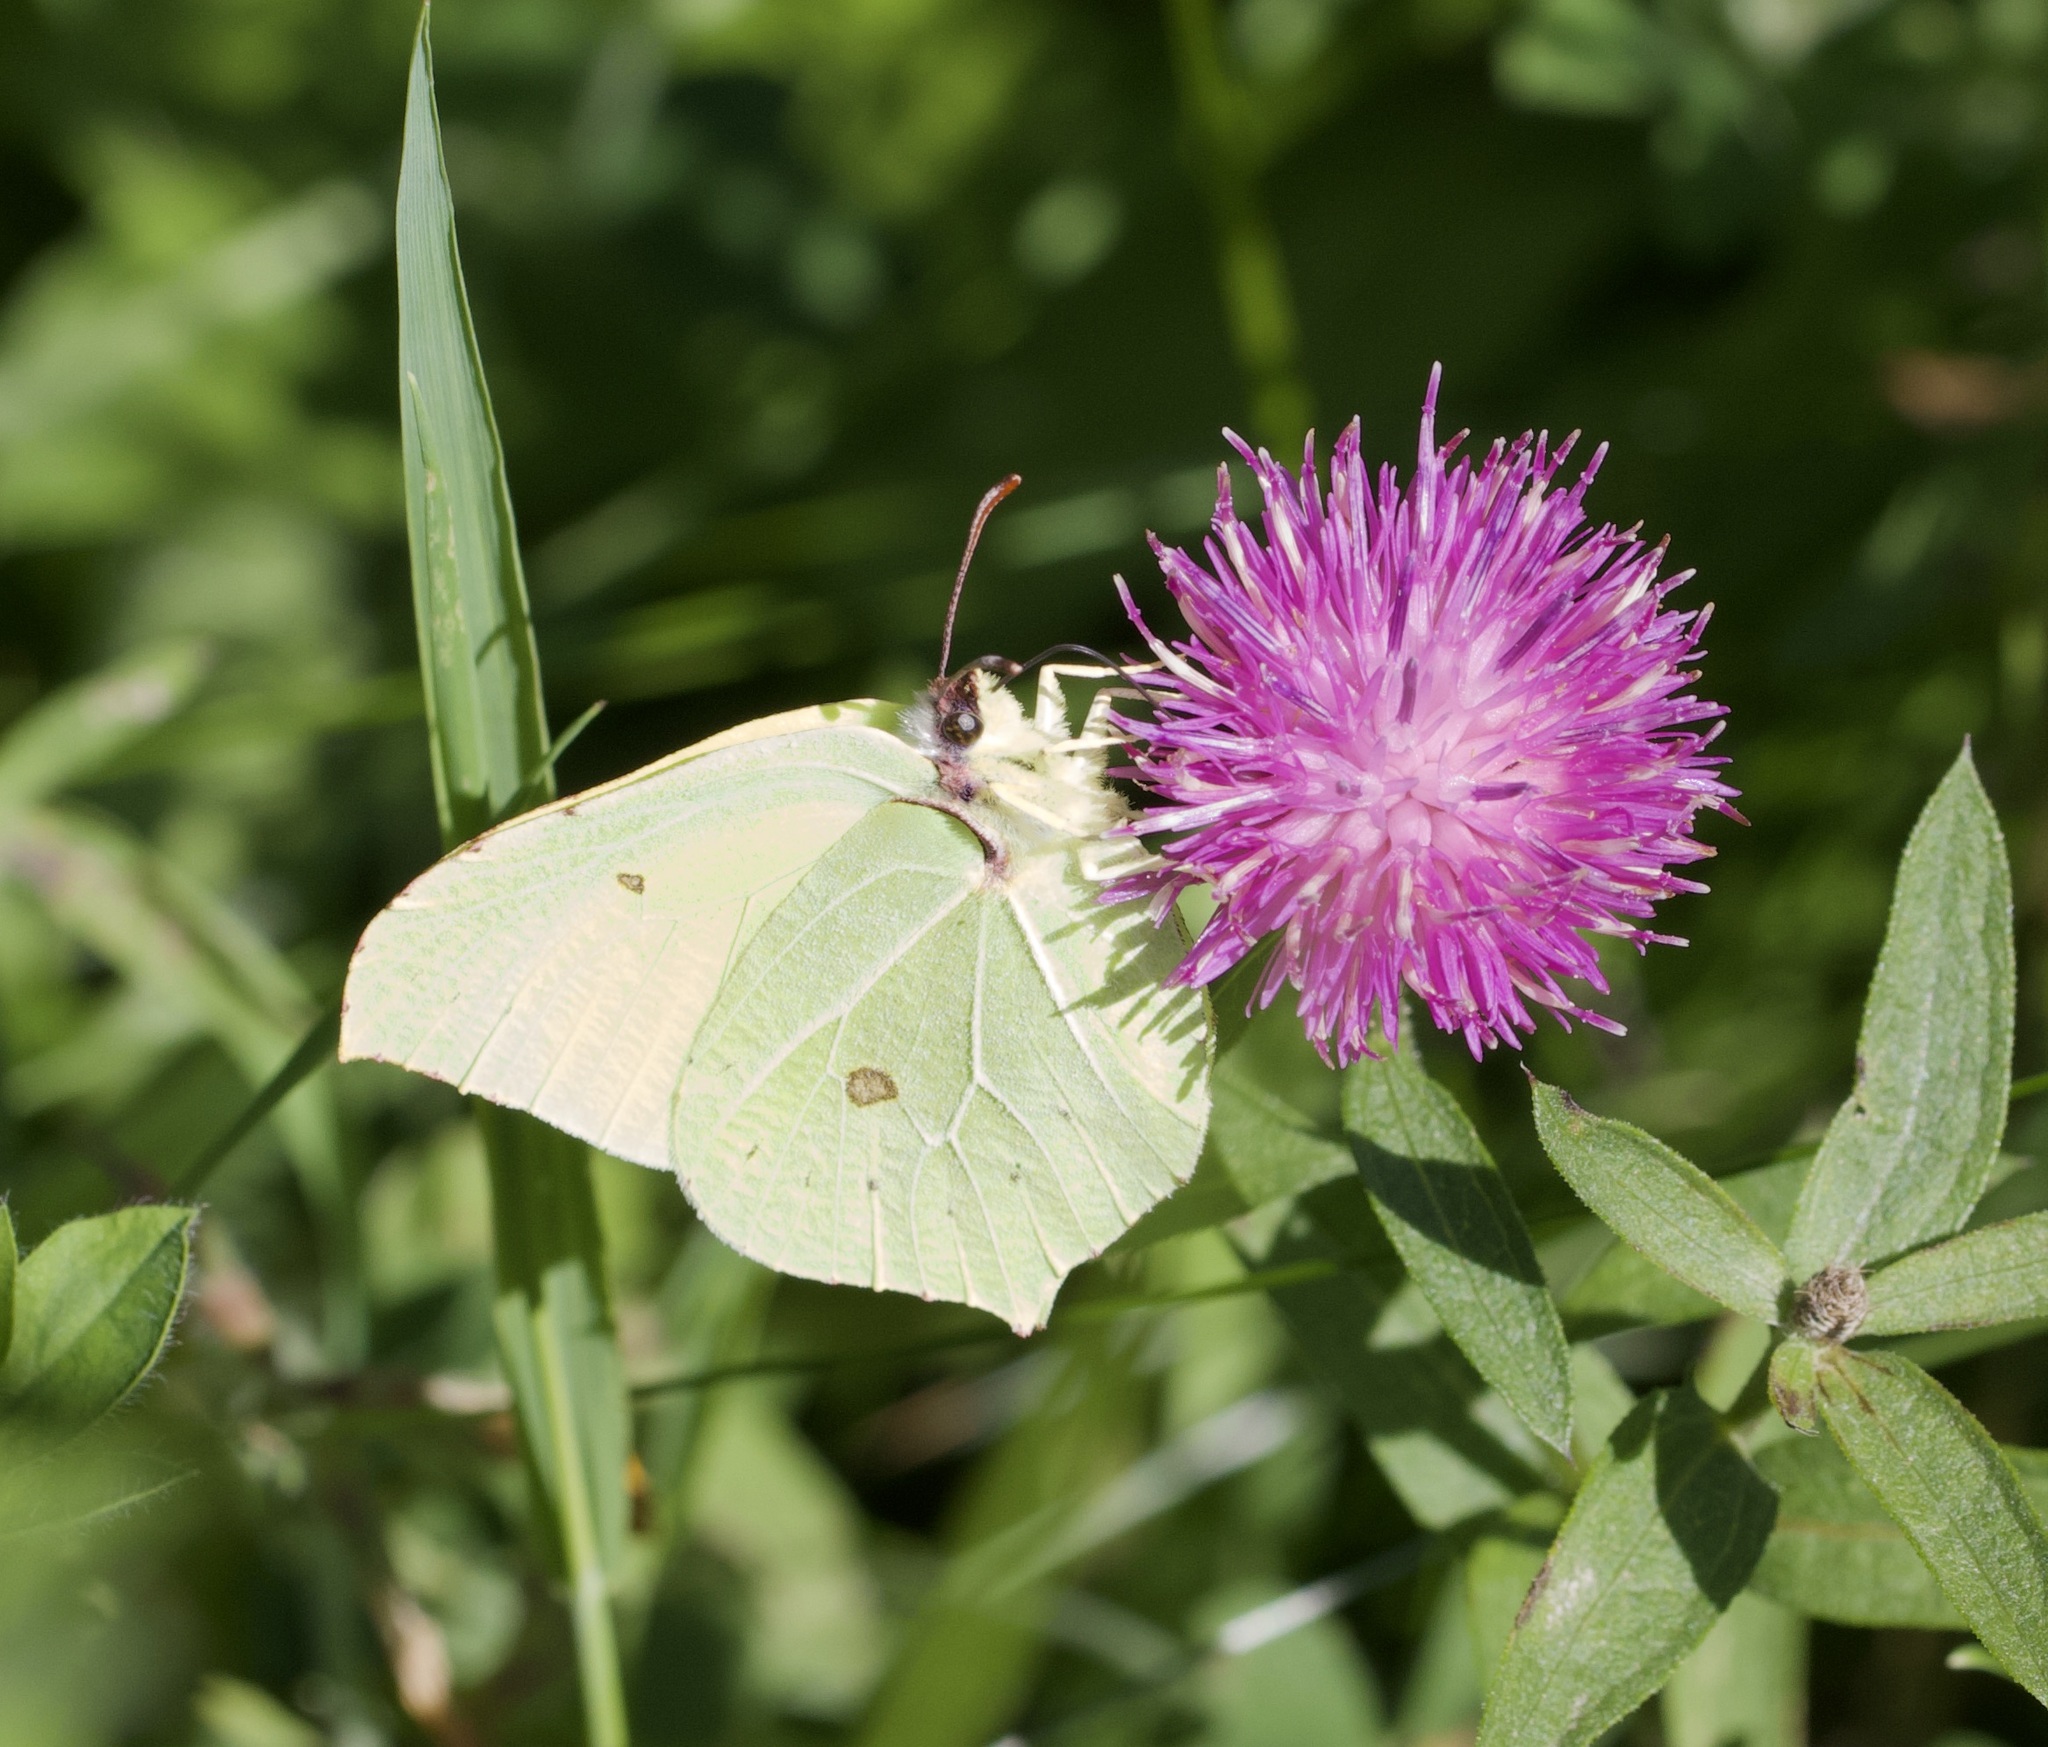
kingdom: Animalia
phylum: Arthropoda
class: Insecta
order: Lepidoptera
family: Pieridae
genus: Gonepteryx
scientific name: Gonepteryx rhamni
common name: Brimstone
